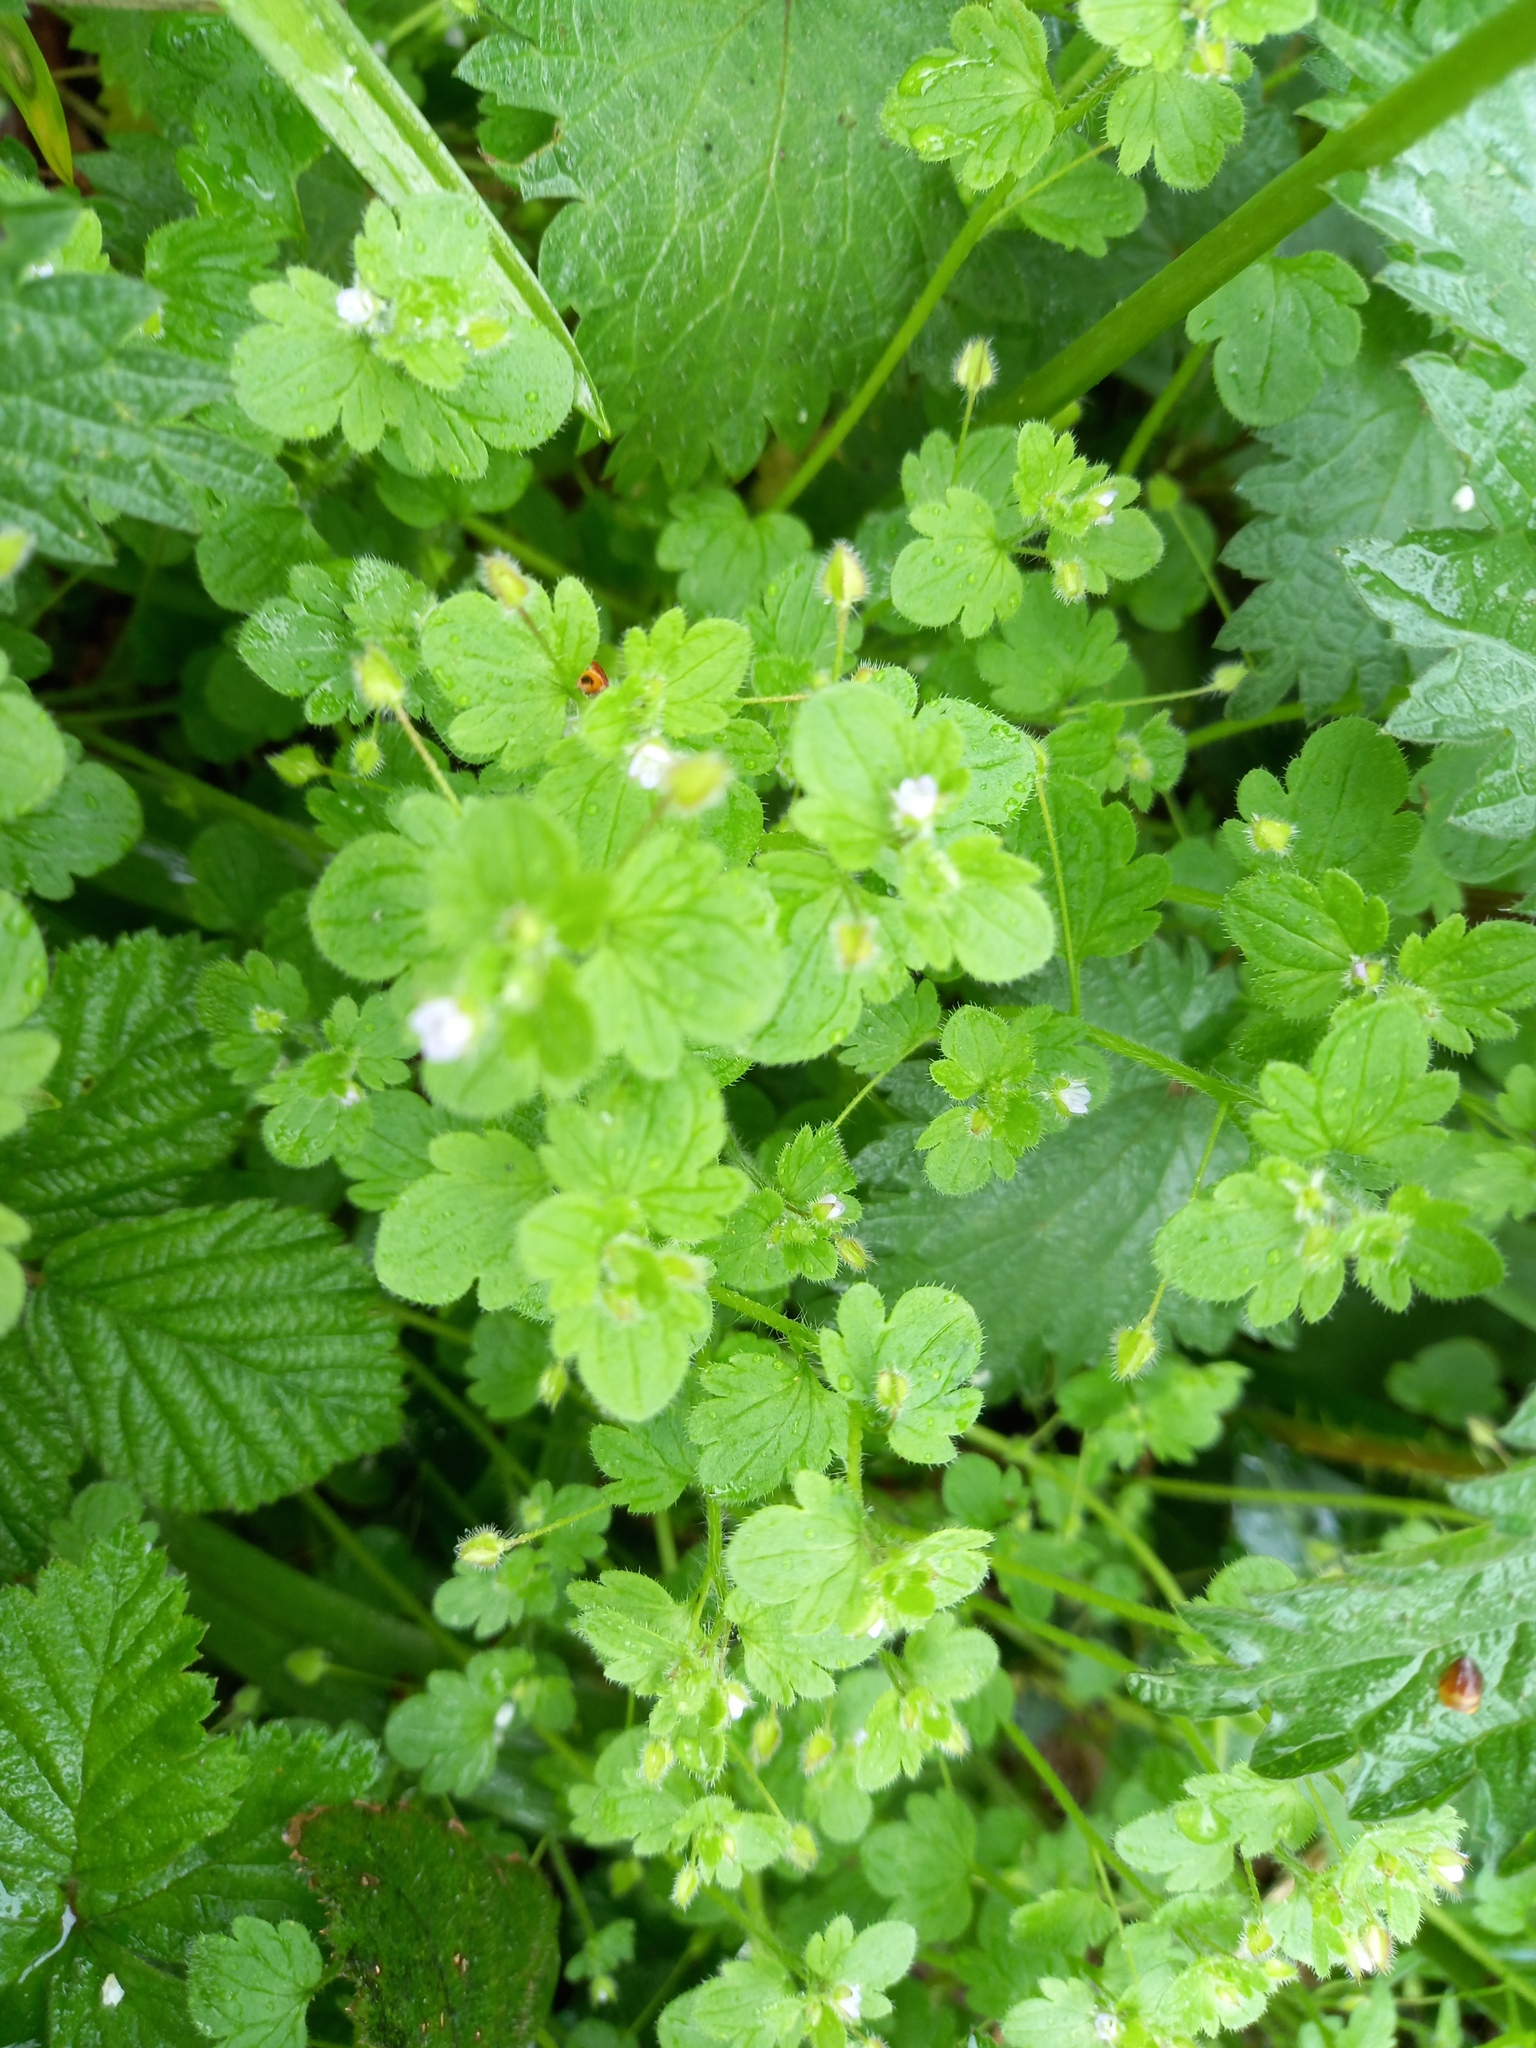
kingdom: Plantae
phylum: Tracheophyta
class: Magnoliopsida
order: Lamiales
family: Plantaginaceae
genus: Veronica
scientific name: Veronica sublobata
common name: False ivy-leaved speedwell
